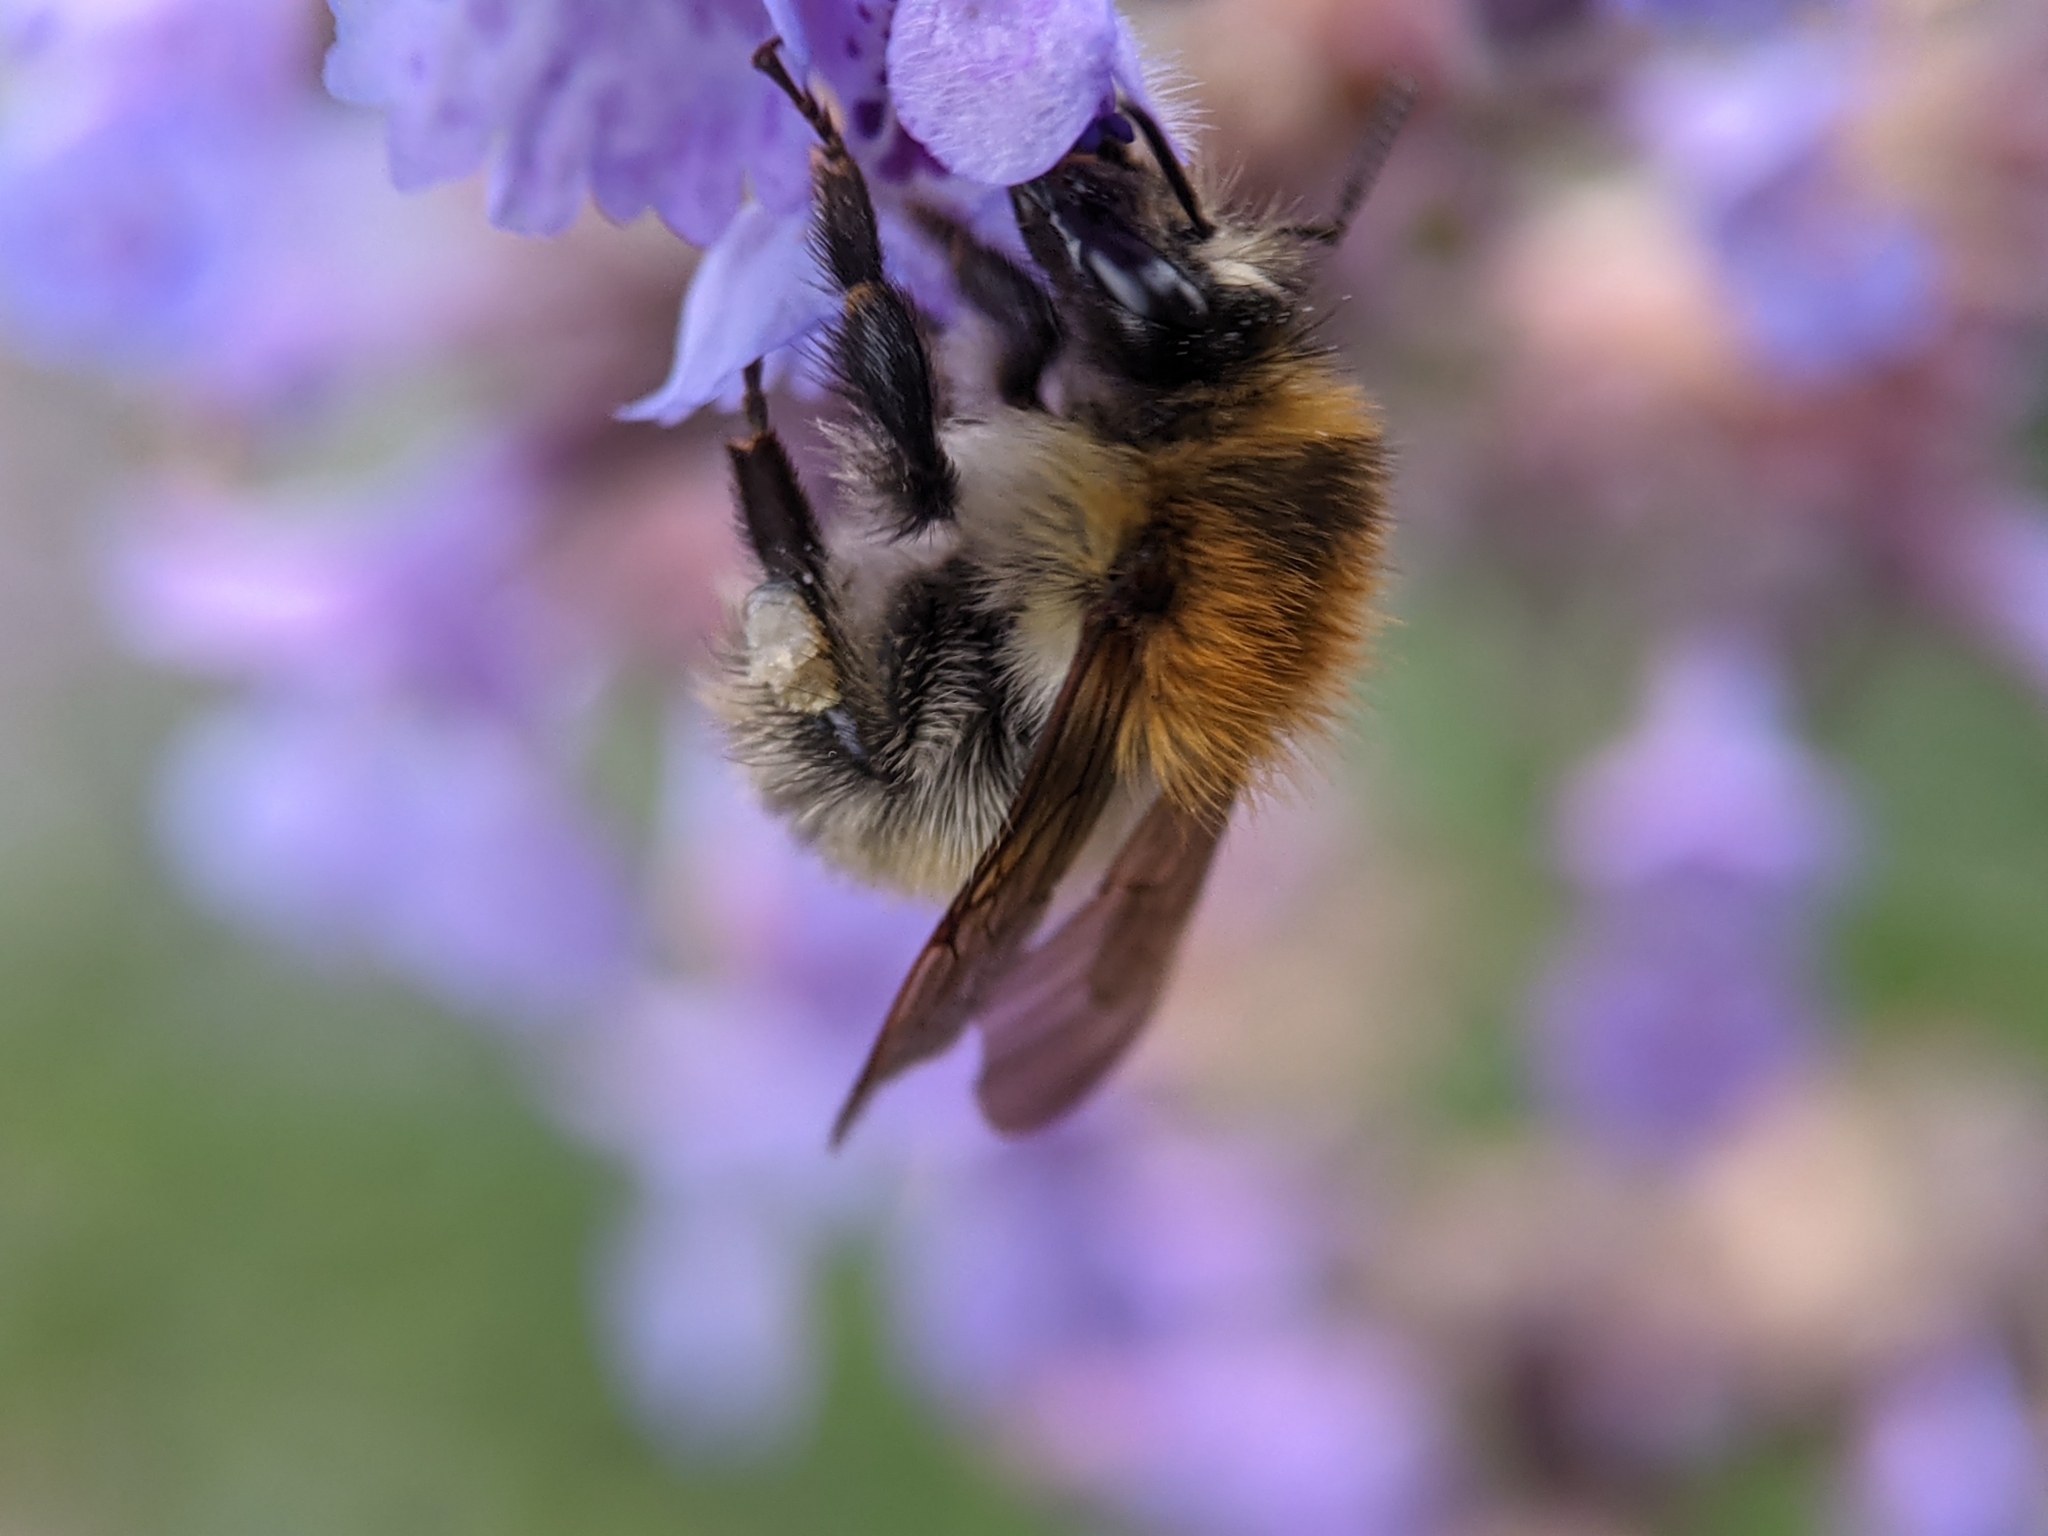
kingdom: Animalia
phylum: Arthropoda
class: Insecta
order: Hymenoptera
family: Apidae
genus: Bombus
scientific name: Bombus pascuorum
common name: Common carder bee
